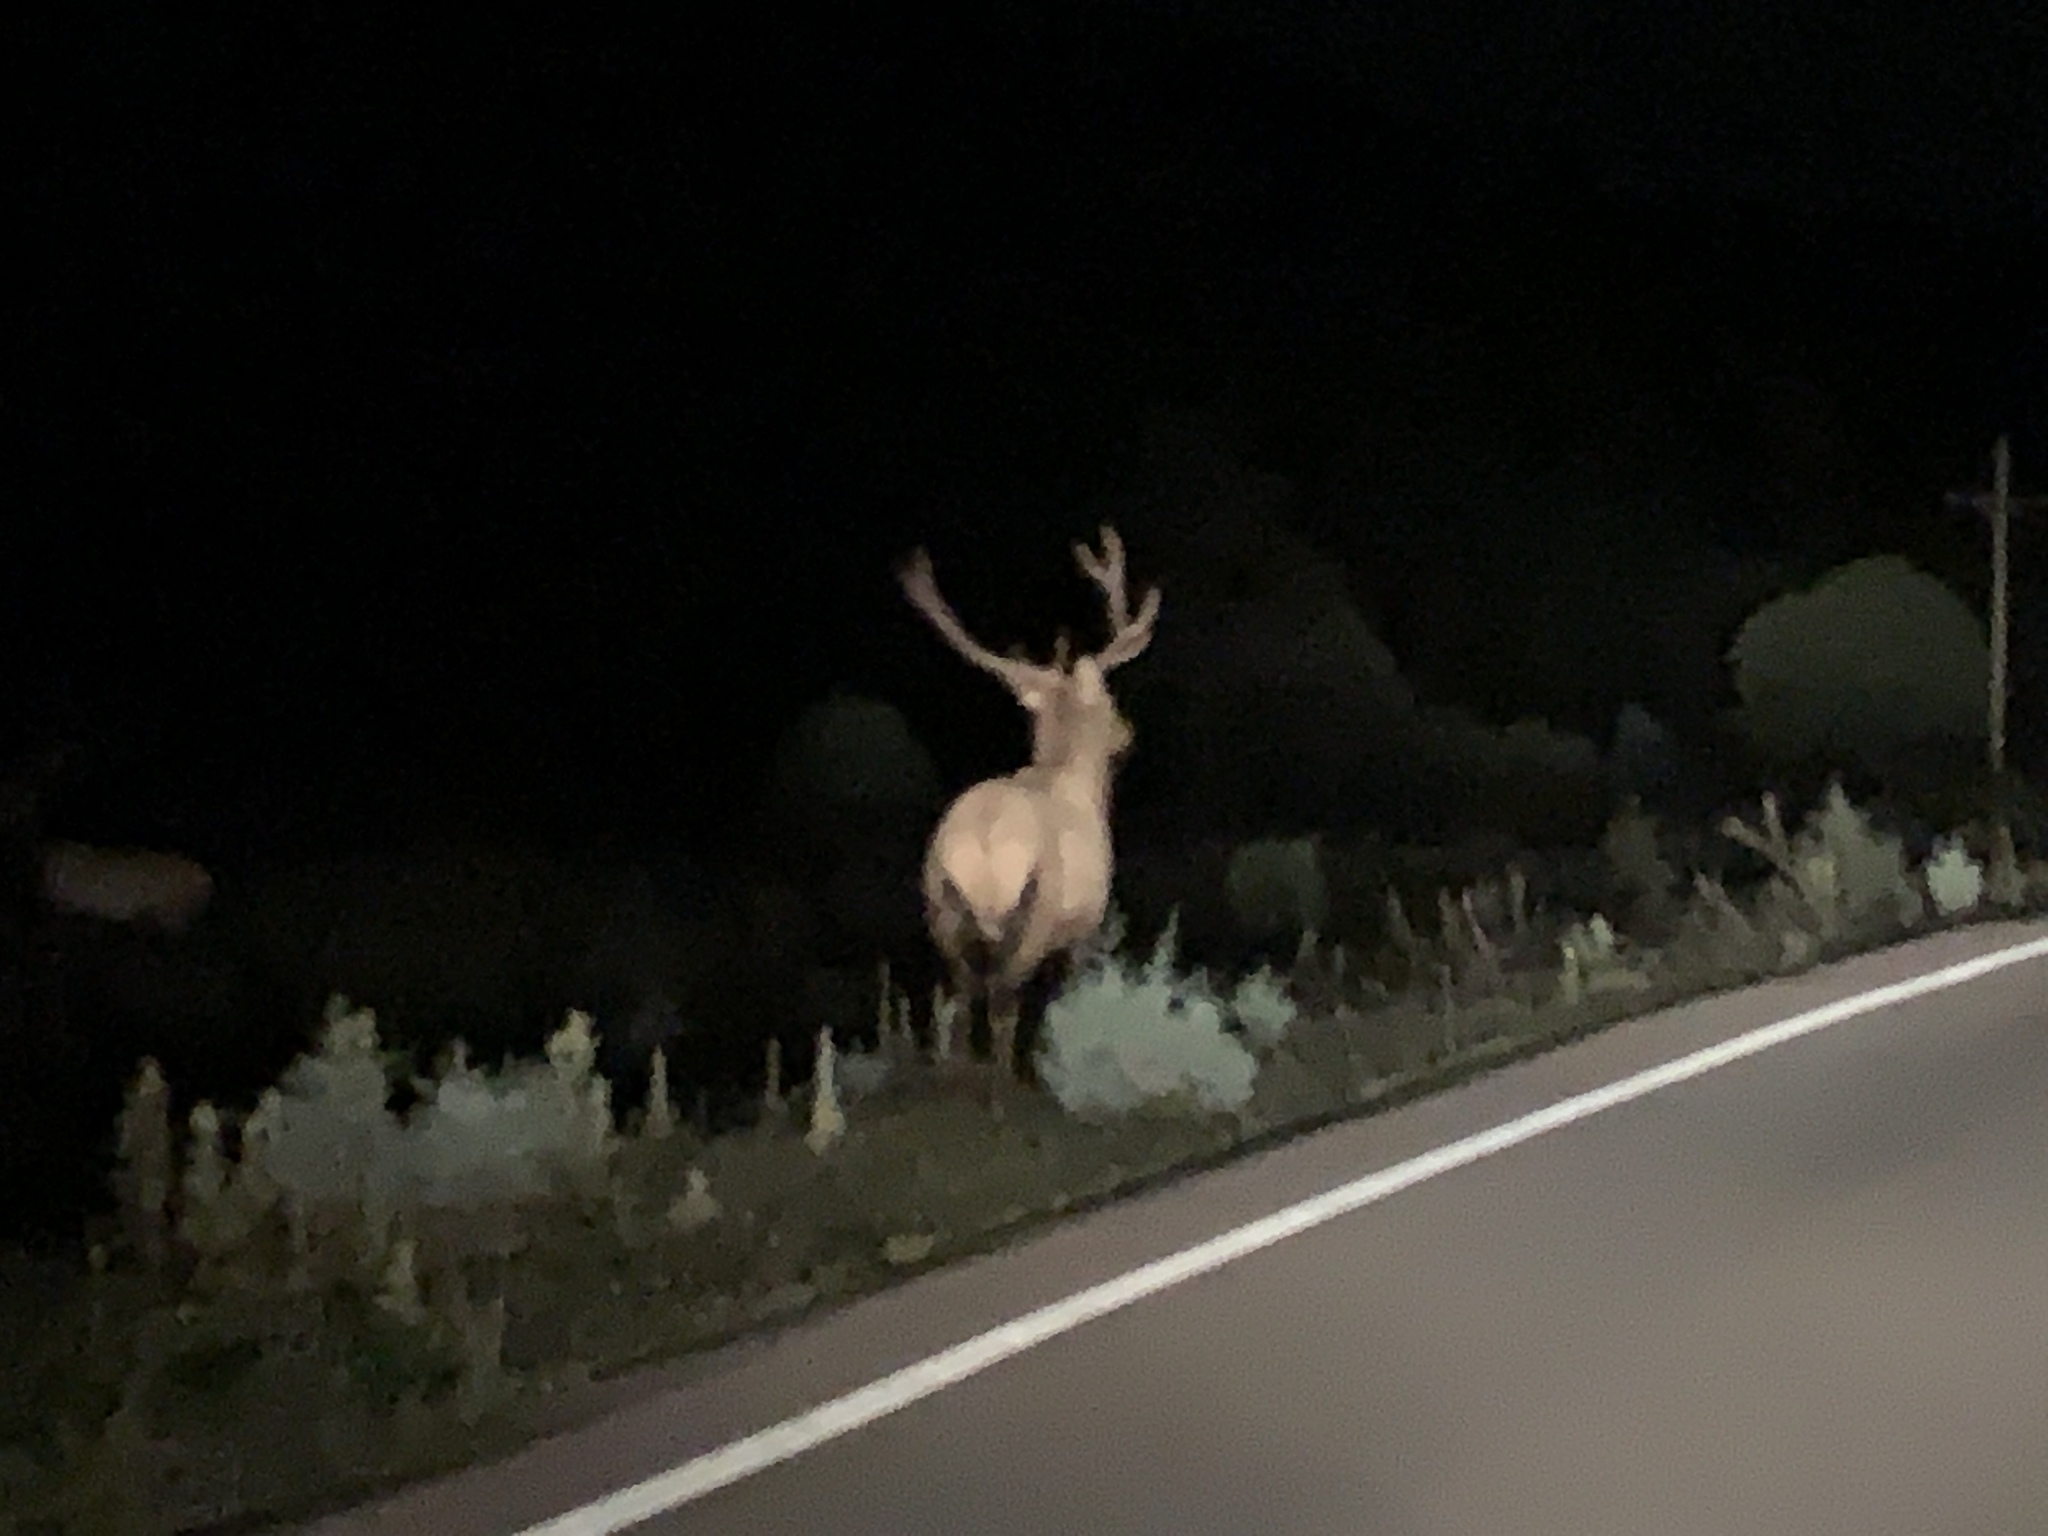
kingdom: Animalia
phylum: Chordata
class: Mammalia
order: Artiodactyla
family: Cervidae
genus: Cervus
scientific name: Cervus elaphus
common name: Red deer
